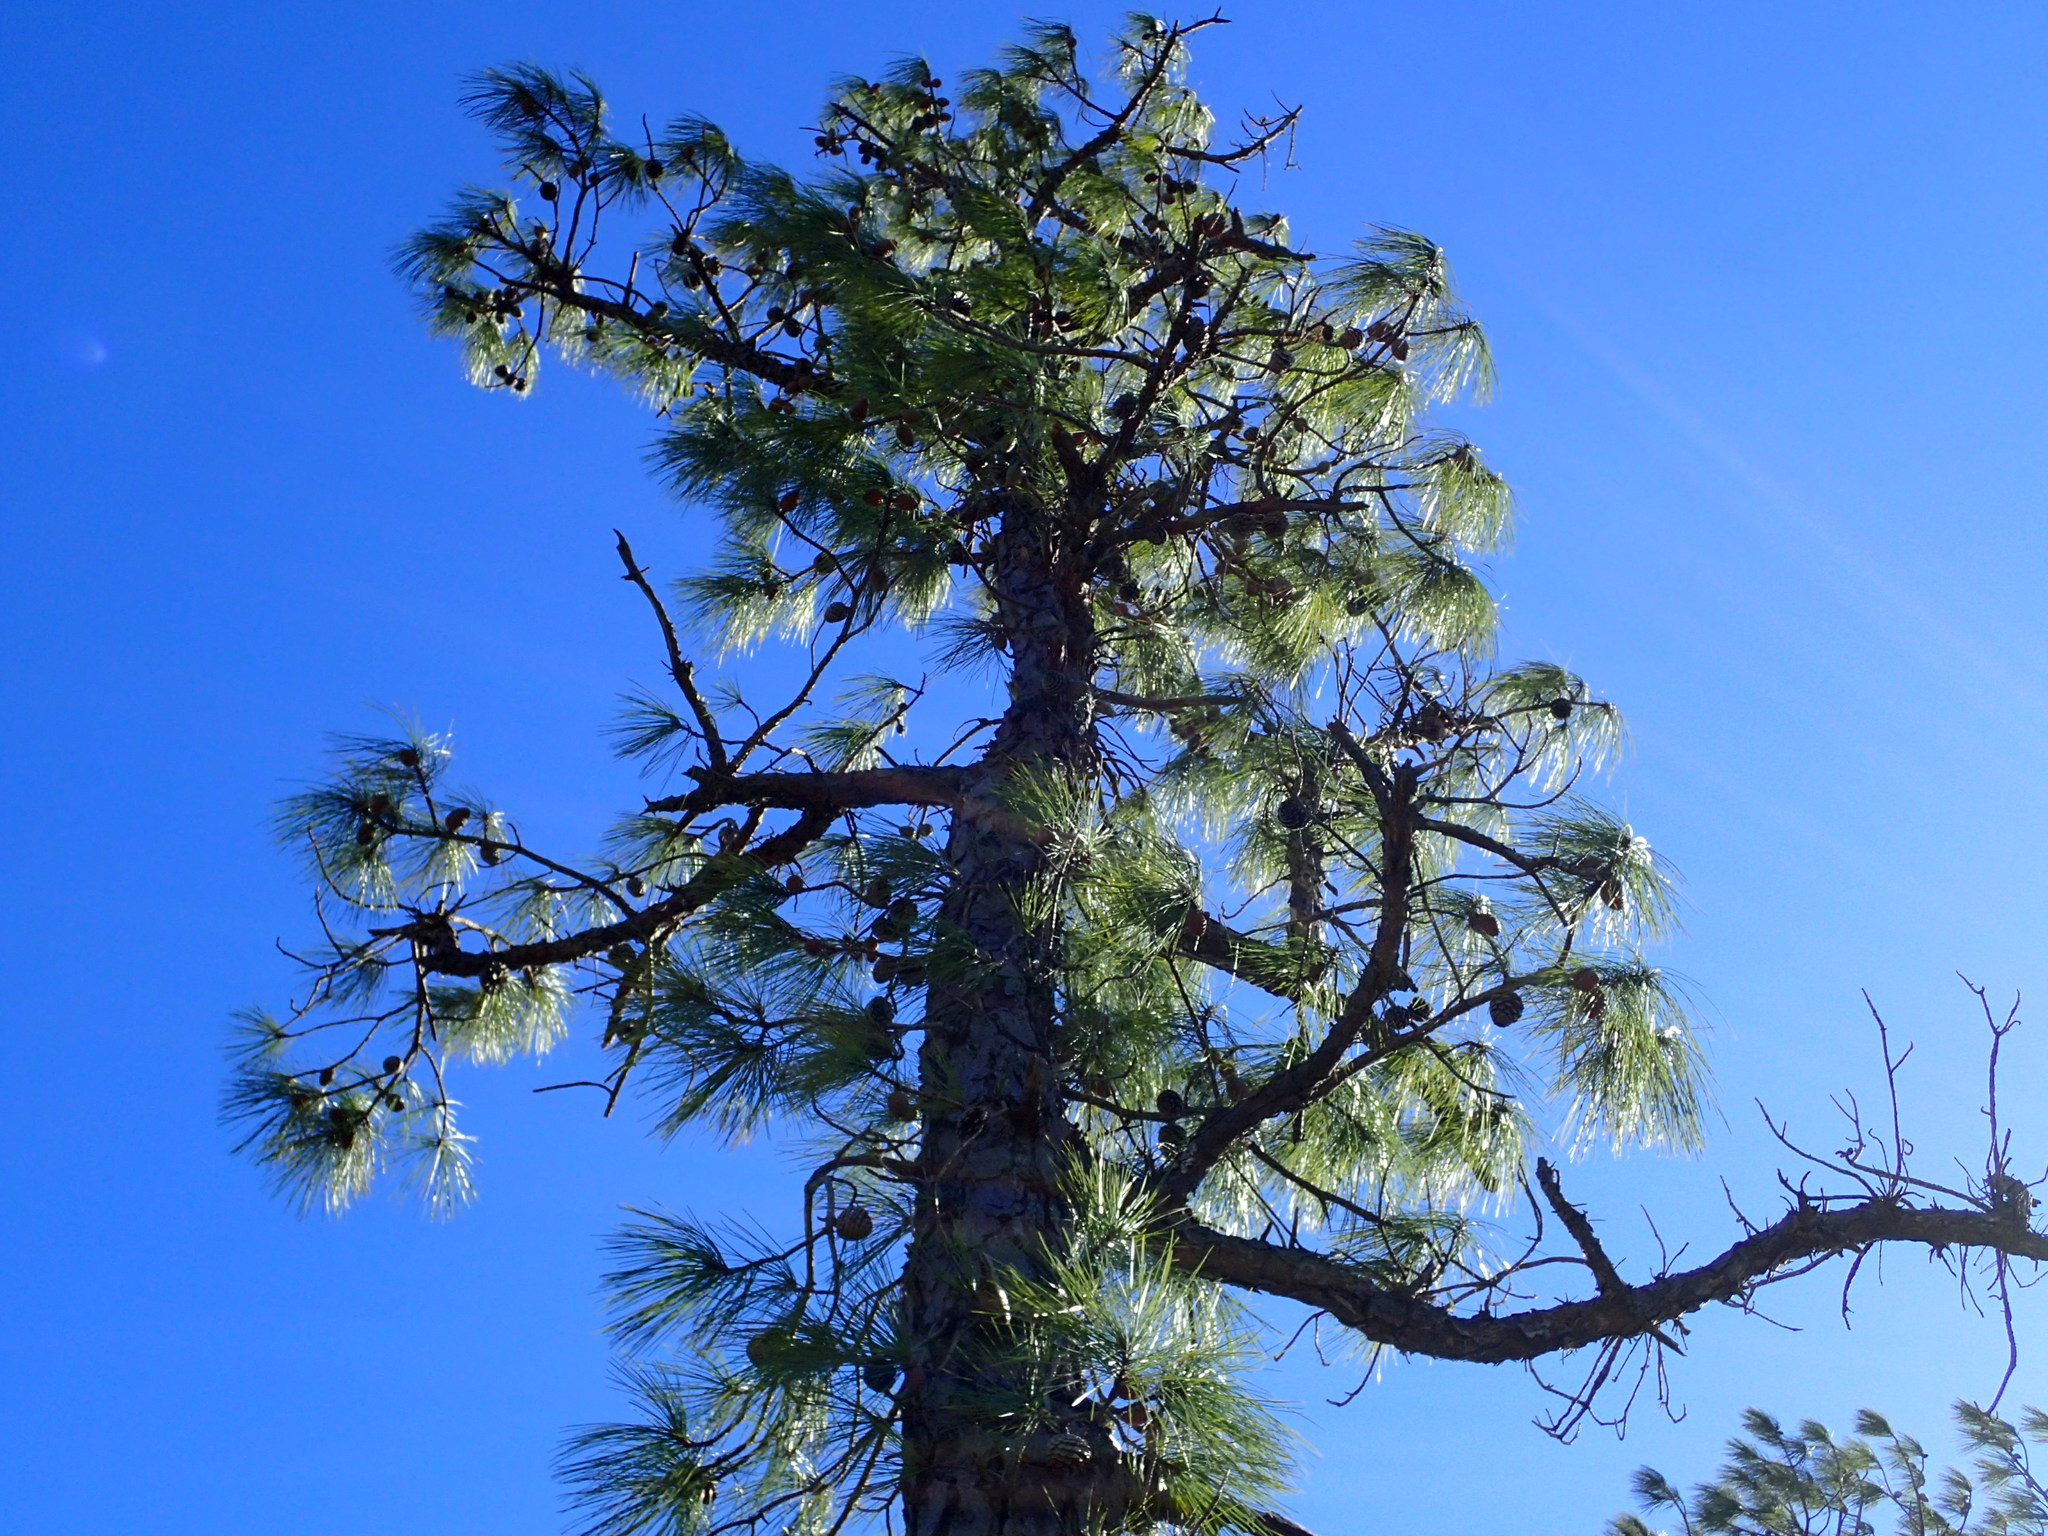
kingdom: Plantae
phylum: Tracheophyta
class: Pinopsida
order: Pinales
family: Pinaceae
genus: Pinus
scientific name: Pinus serotina
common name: Marsh pine
